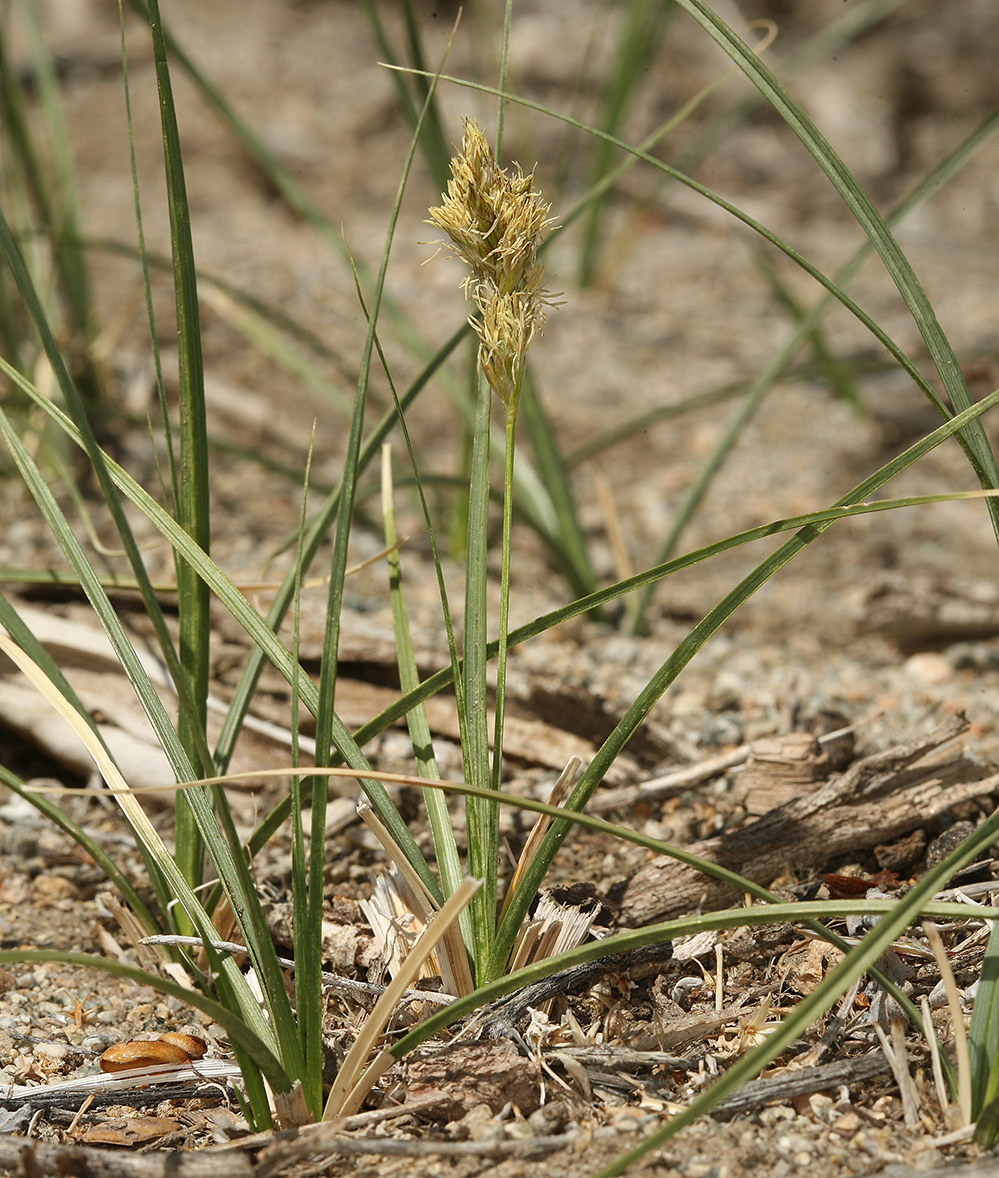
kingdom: Plantae
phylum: Tracheophyta
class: Liliopsida
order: Poales
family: Cyperaceae
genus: Carex
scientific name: Carex douglasii
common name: Douglas' sedge
